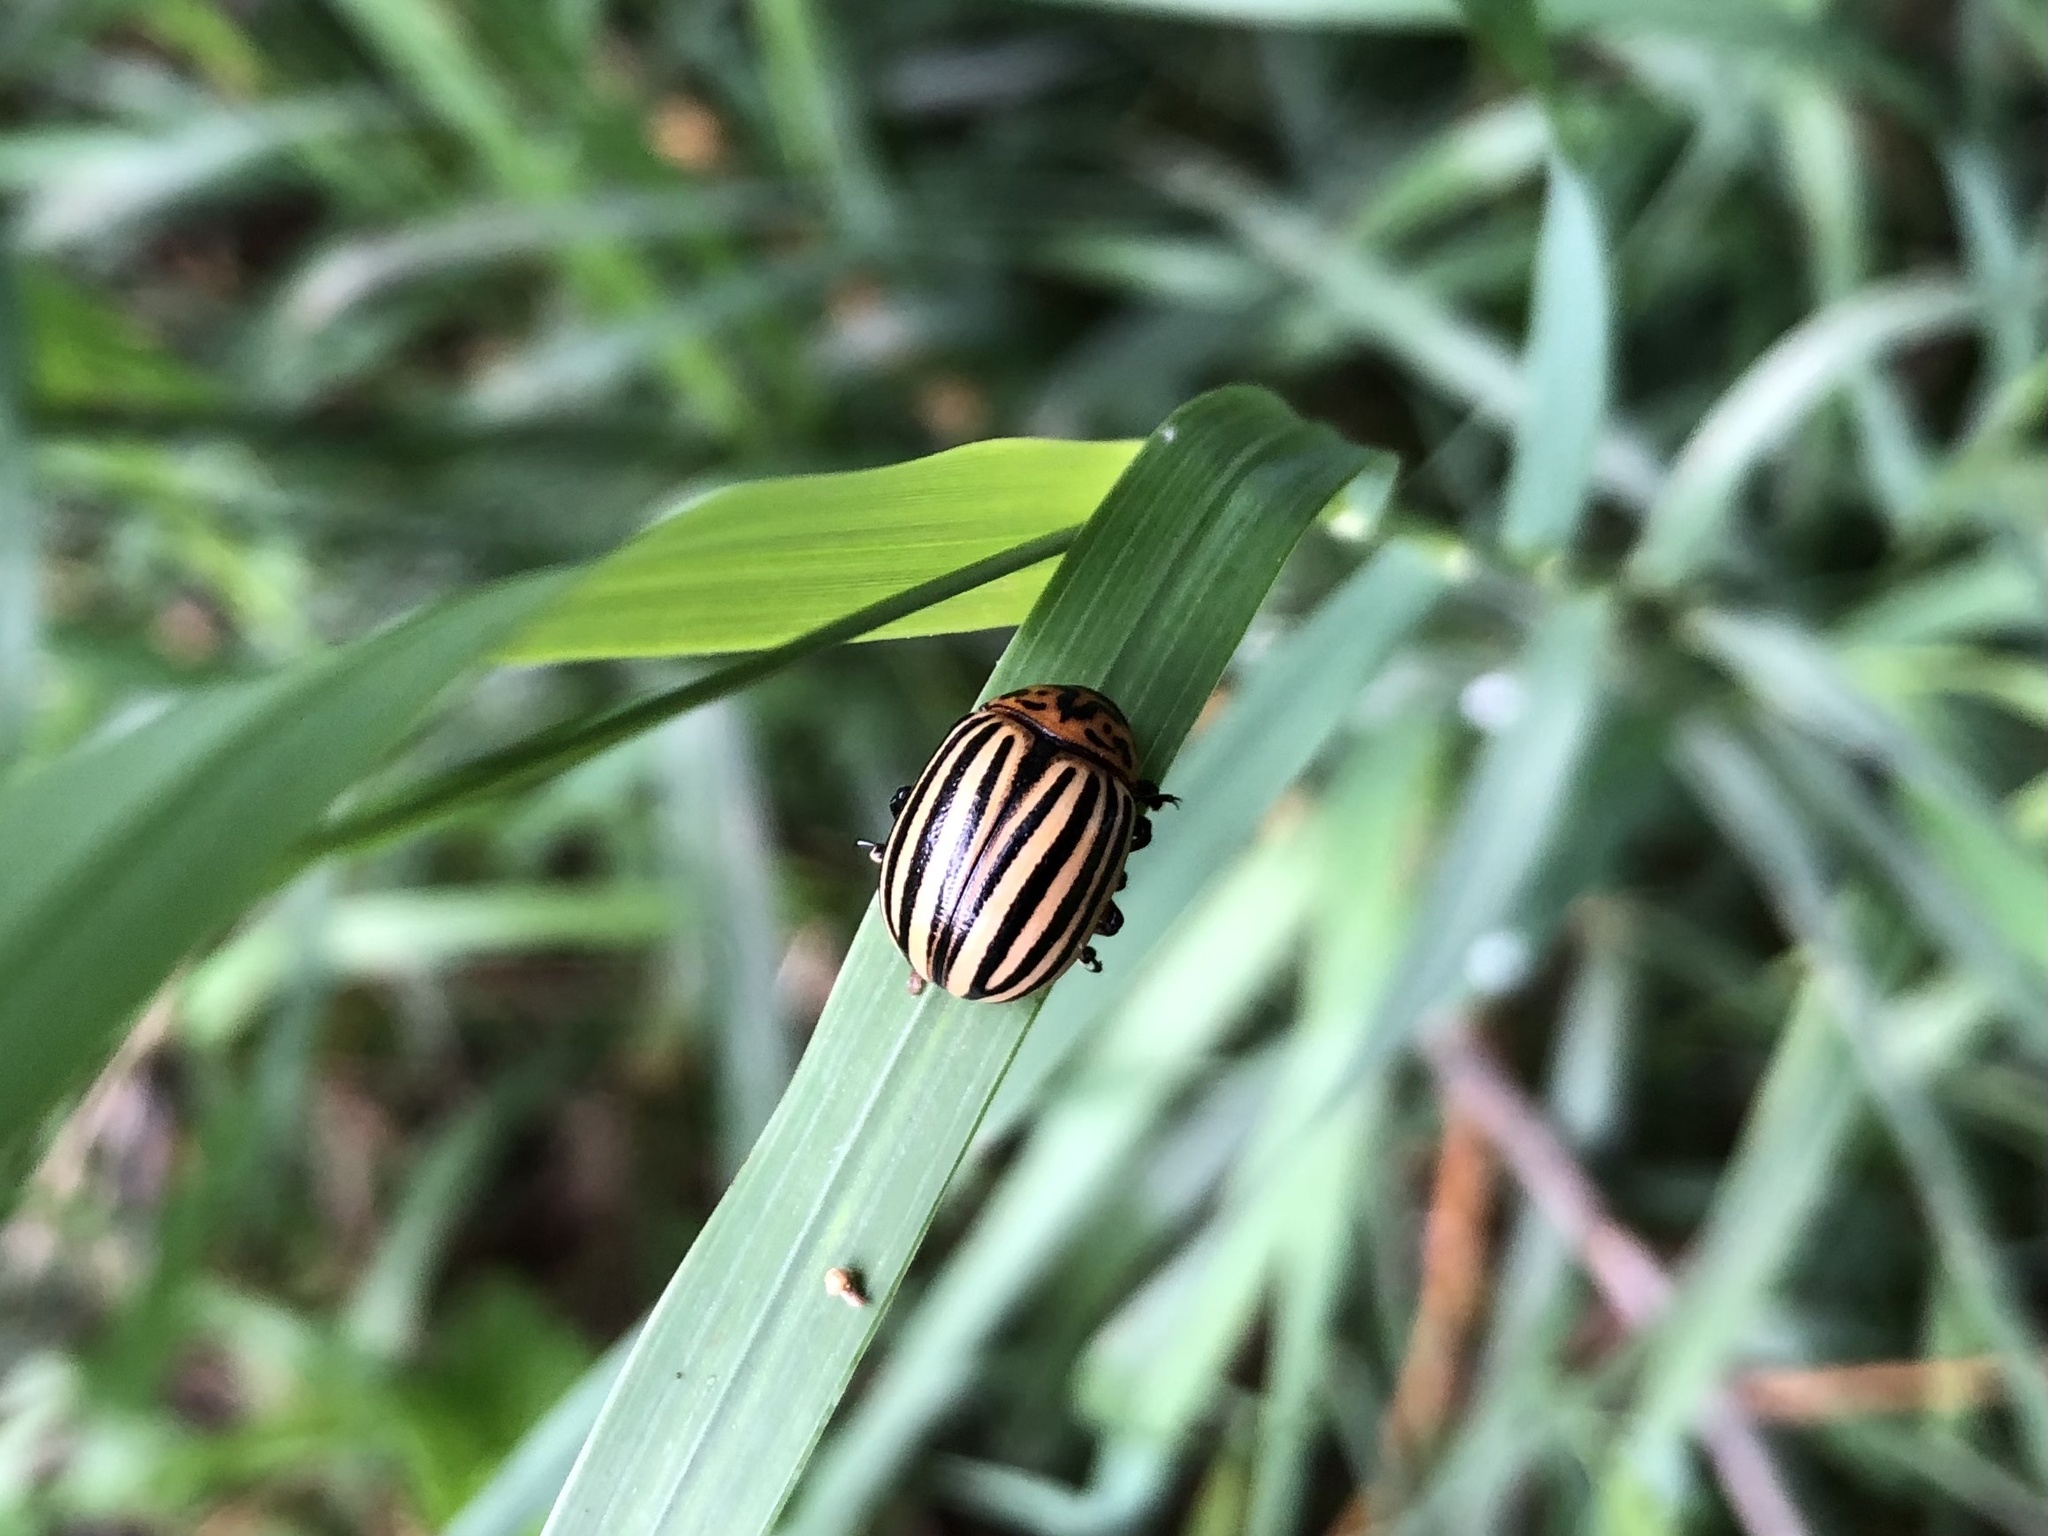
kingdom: Animalia
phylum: Arthropoda
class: Insecta
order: Coleoptera
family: Chrysomelidae
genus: Leptinotarsa
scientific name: Leptinotarsa decemlineata
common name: Colorado potato beetle
